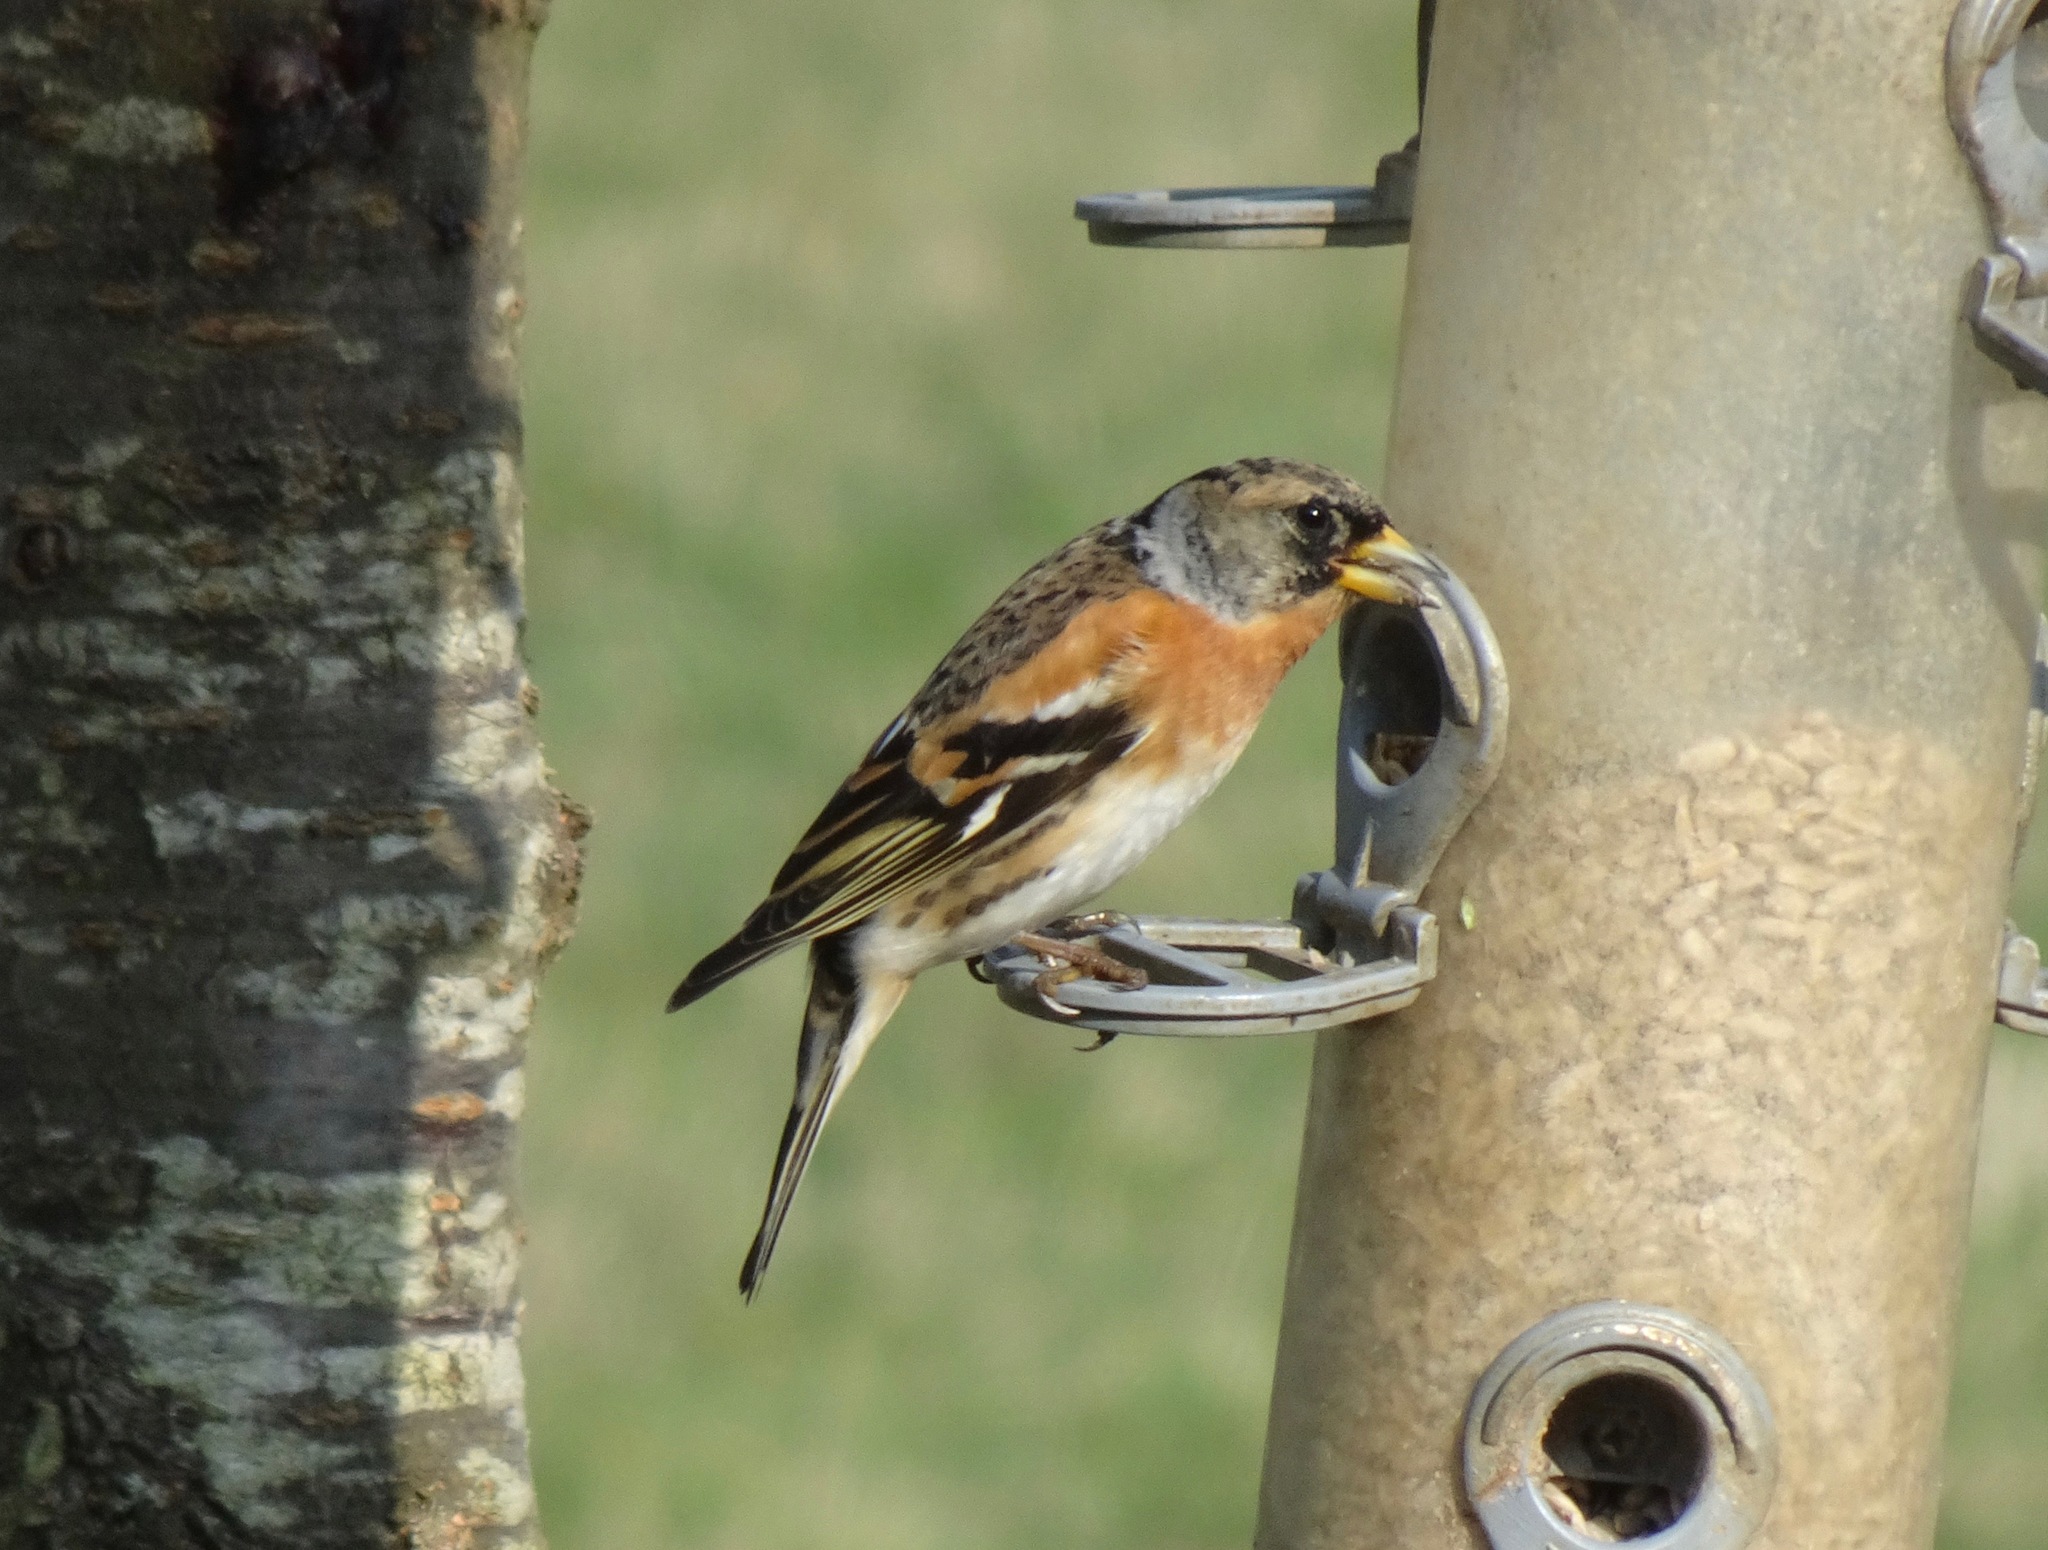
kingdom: Animalia
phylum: Chordata
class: Aves
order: Passeriformes
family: Fringillidae
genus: Fringilla
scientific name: Fringilla montifringilla
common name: Brambling
